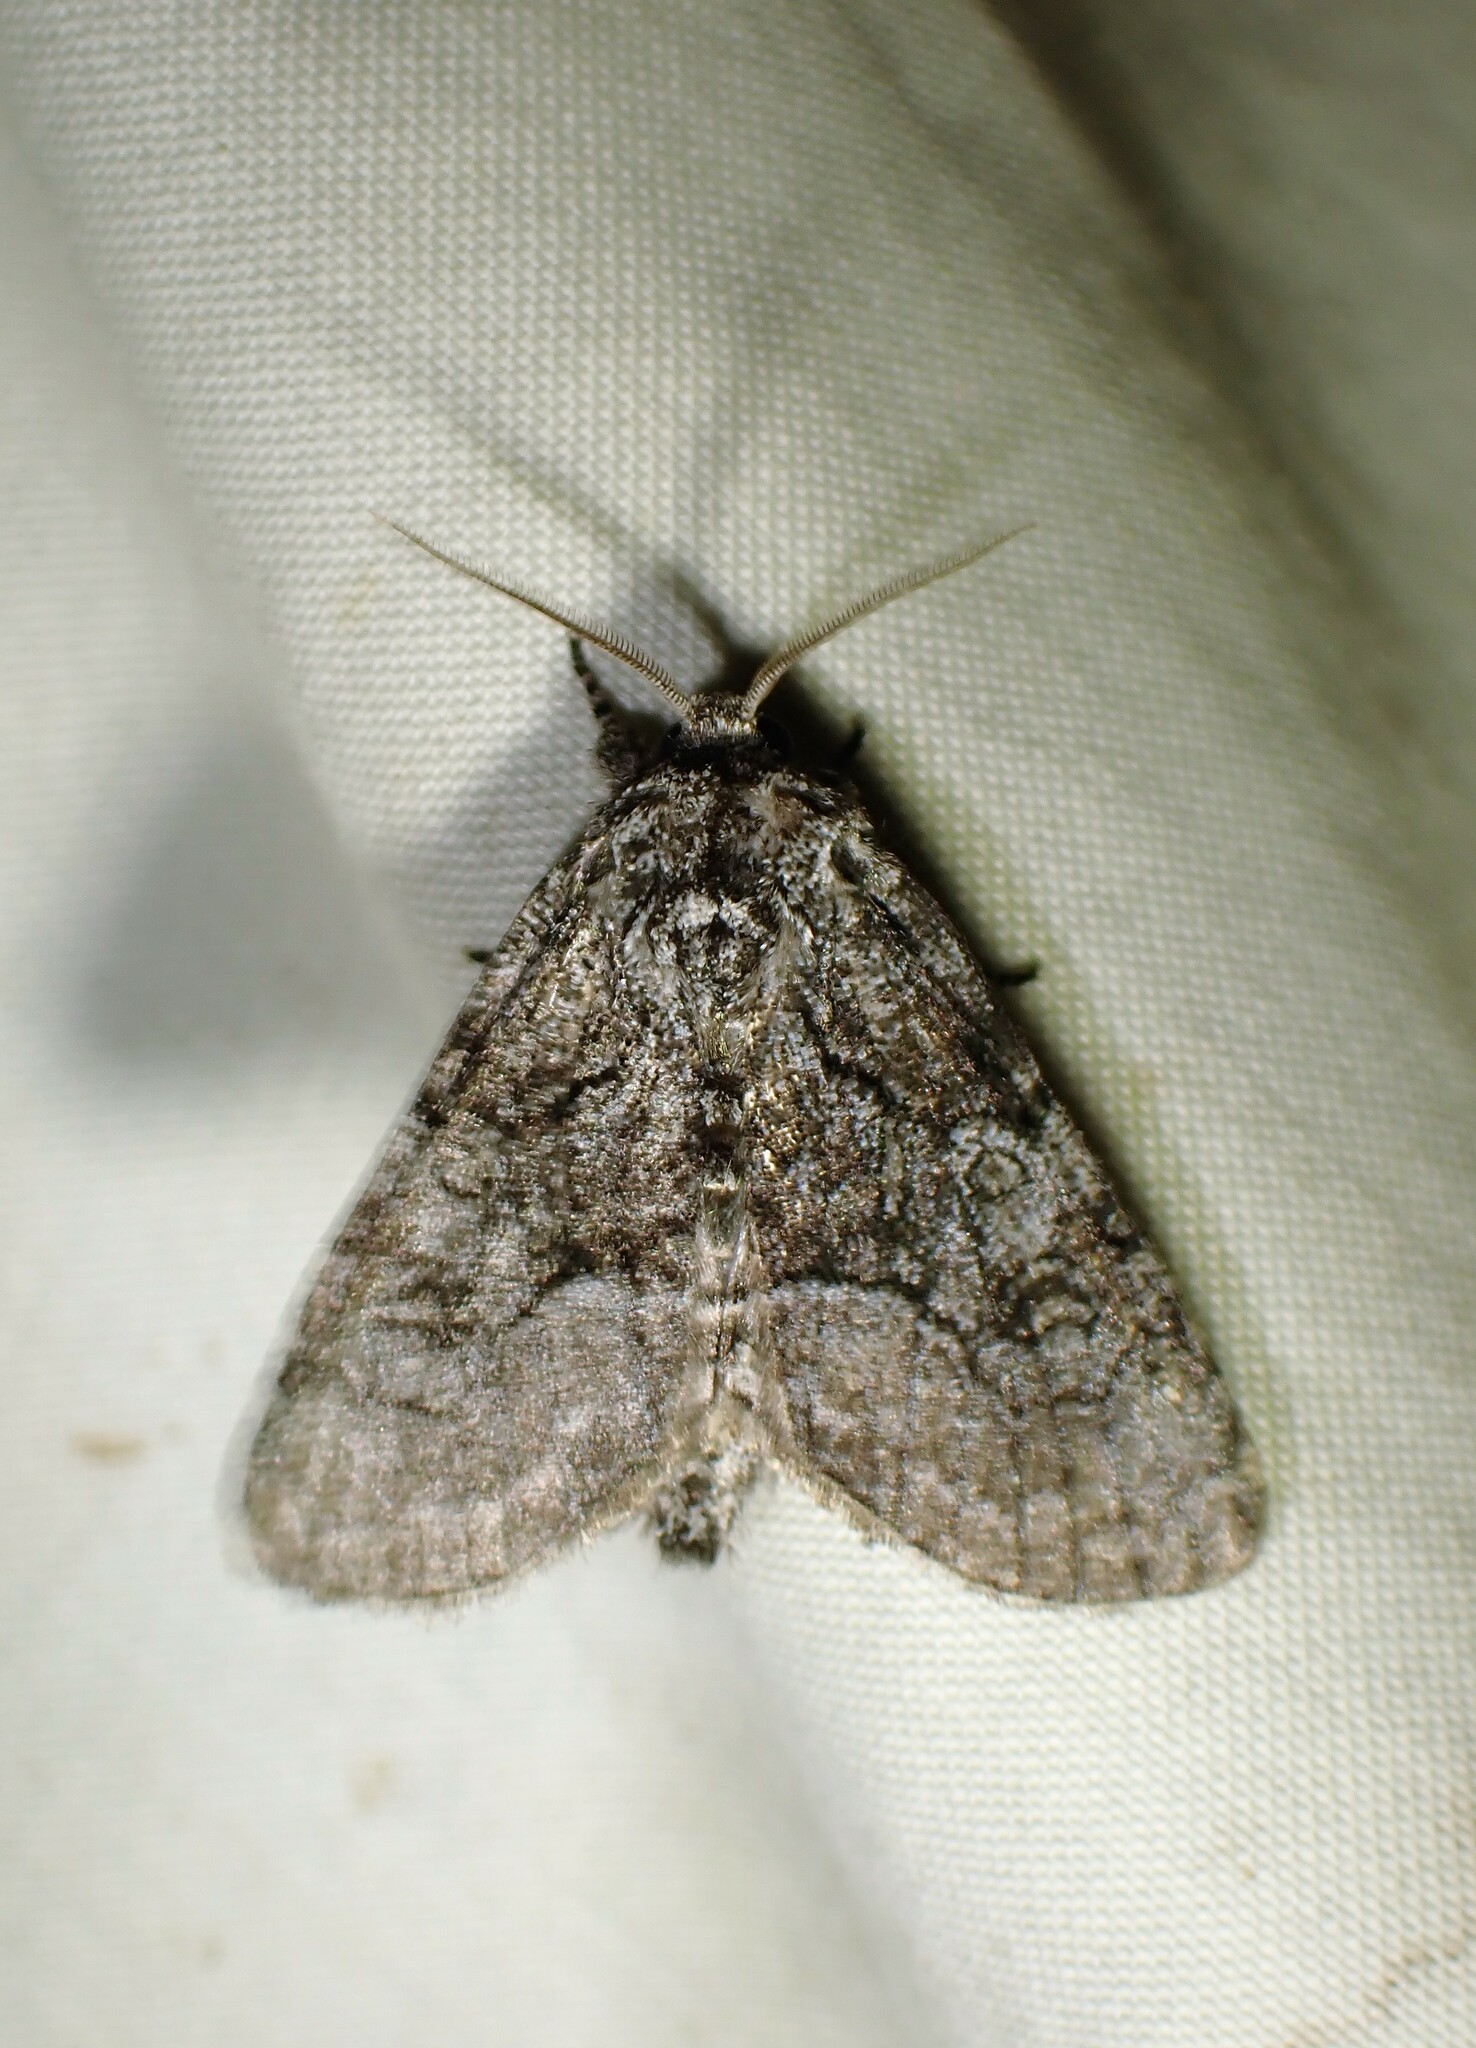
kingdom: Animalia
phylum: Arthropoda
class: Insecta
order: Lepidoptera
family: Noctuidae
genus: Raphia
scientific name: Raphia frater
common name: Brother
